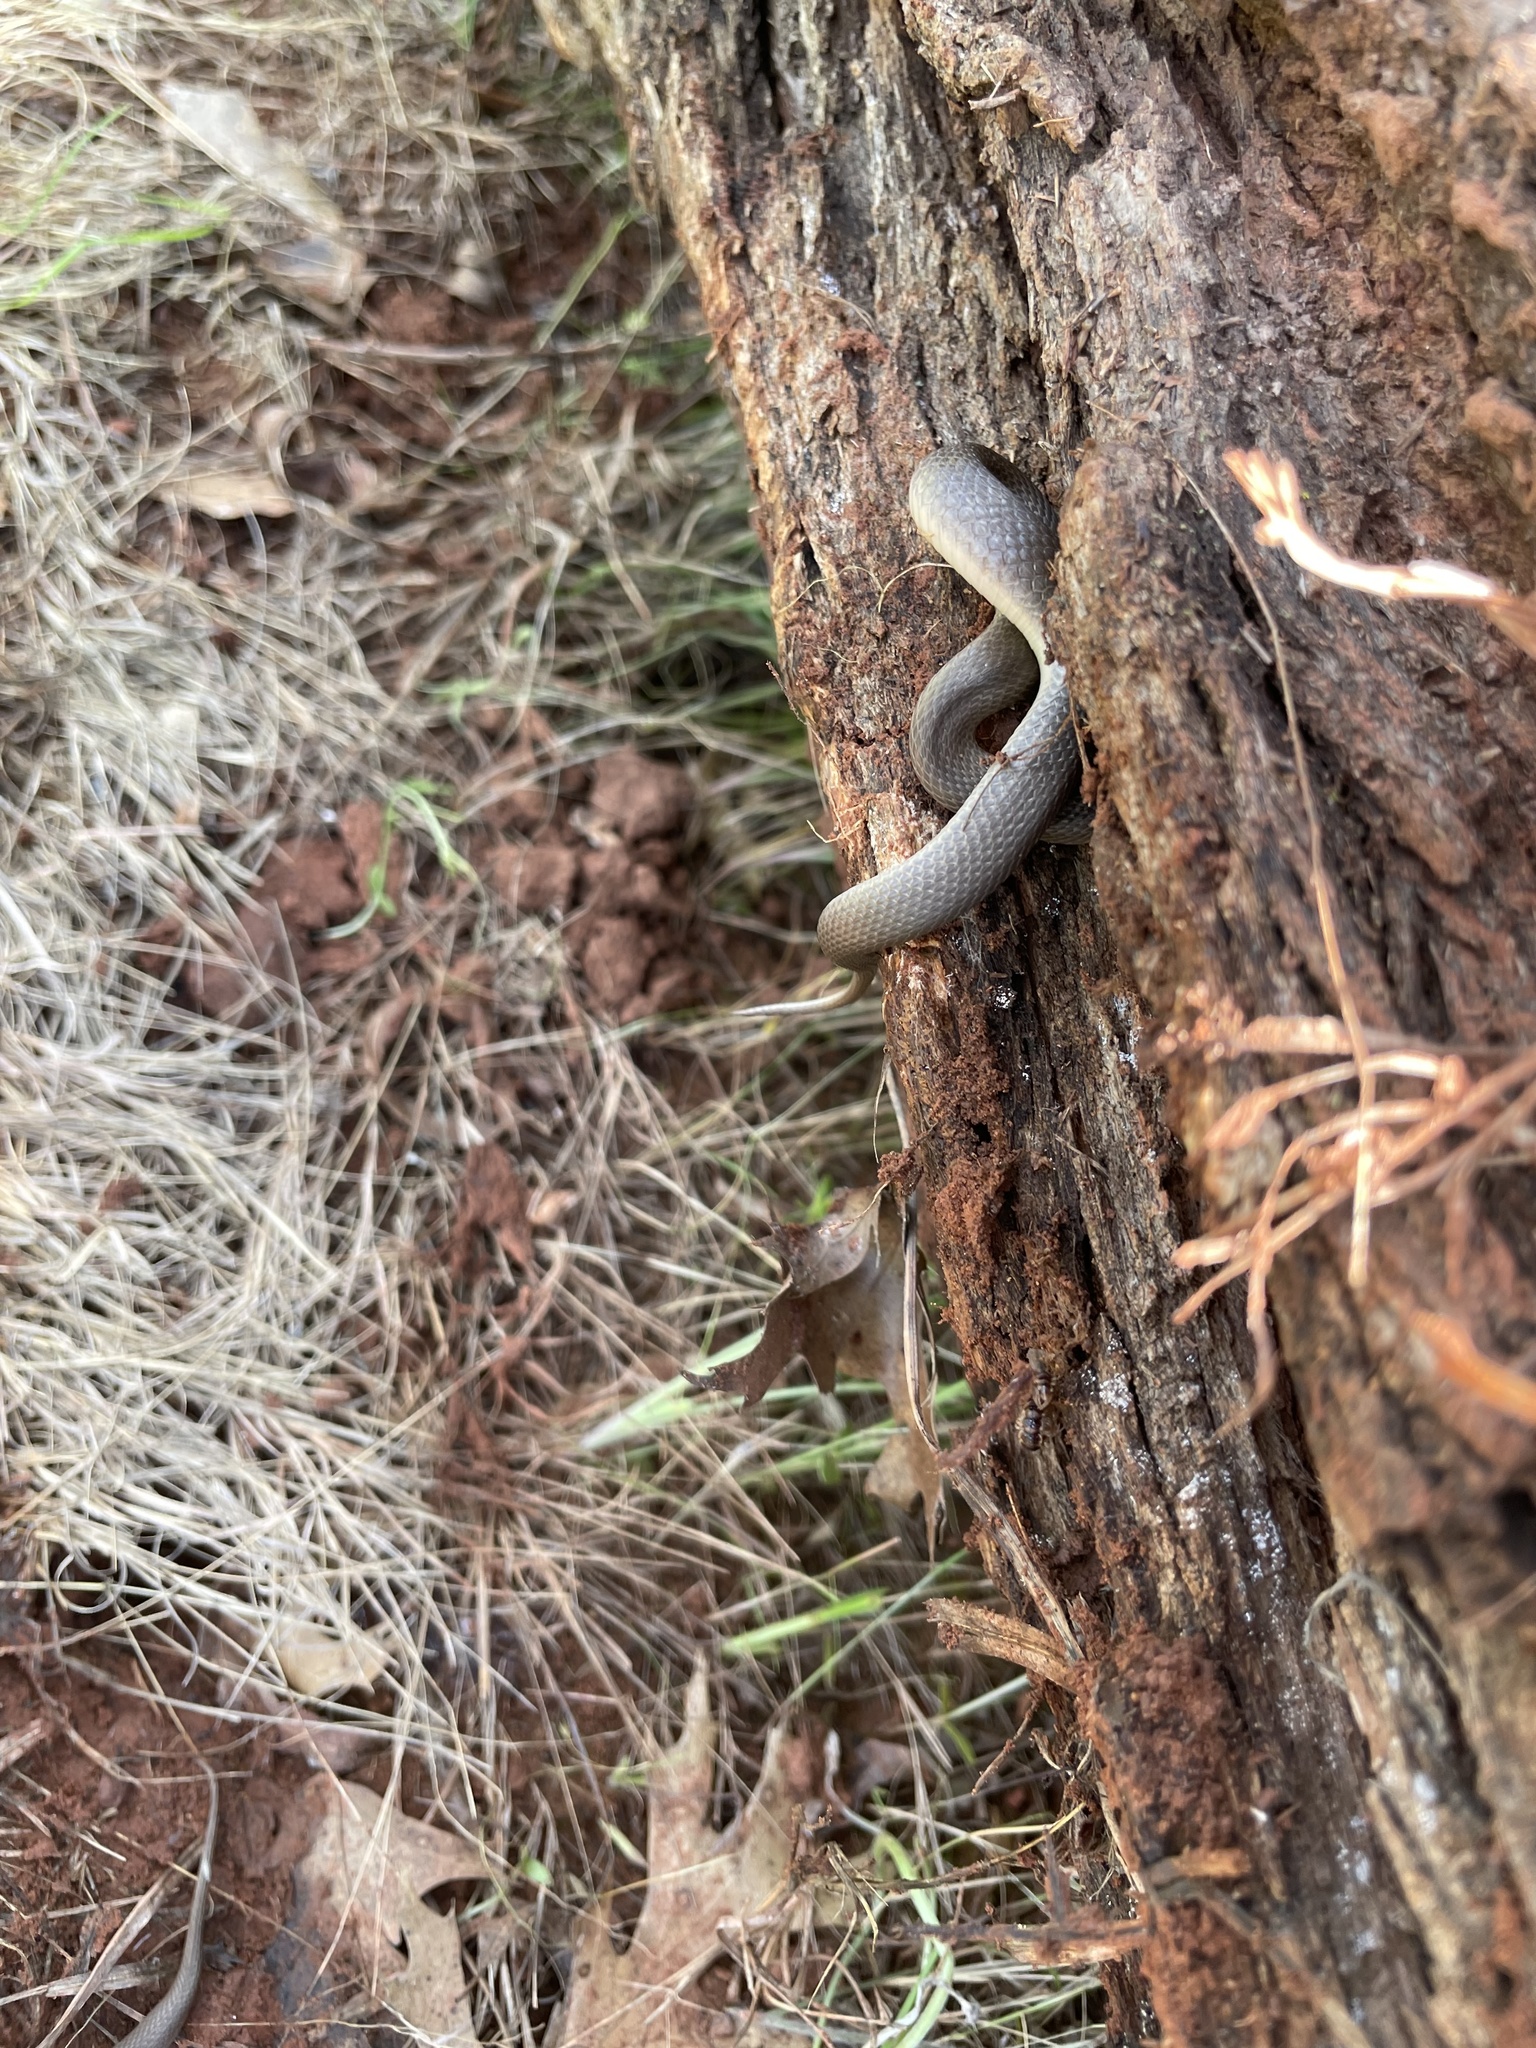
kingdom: Animalia
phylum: Chordata
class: Squamata
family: Colubridae
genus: Haldea
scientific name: Haldea striatula
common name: Rough earth snake
